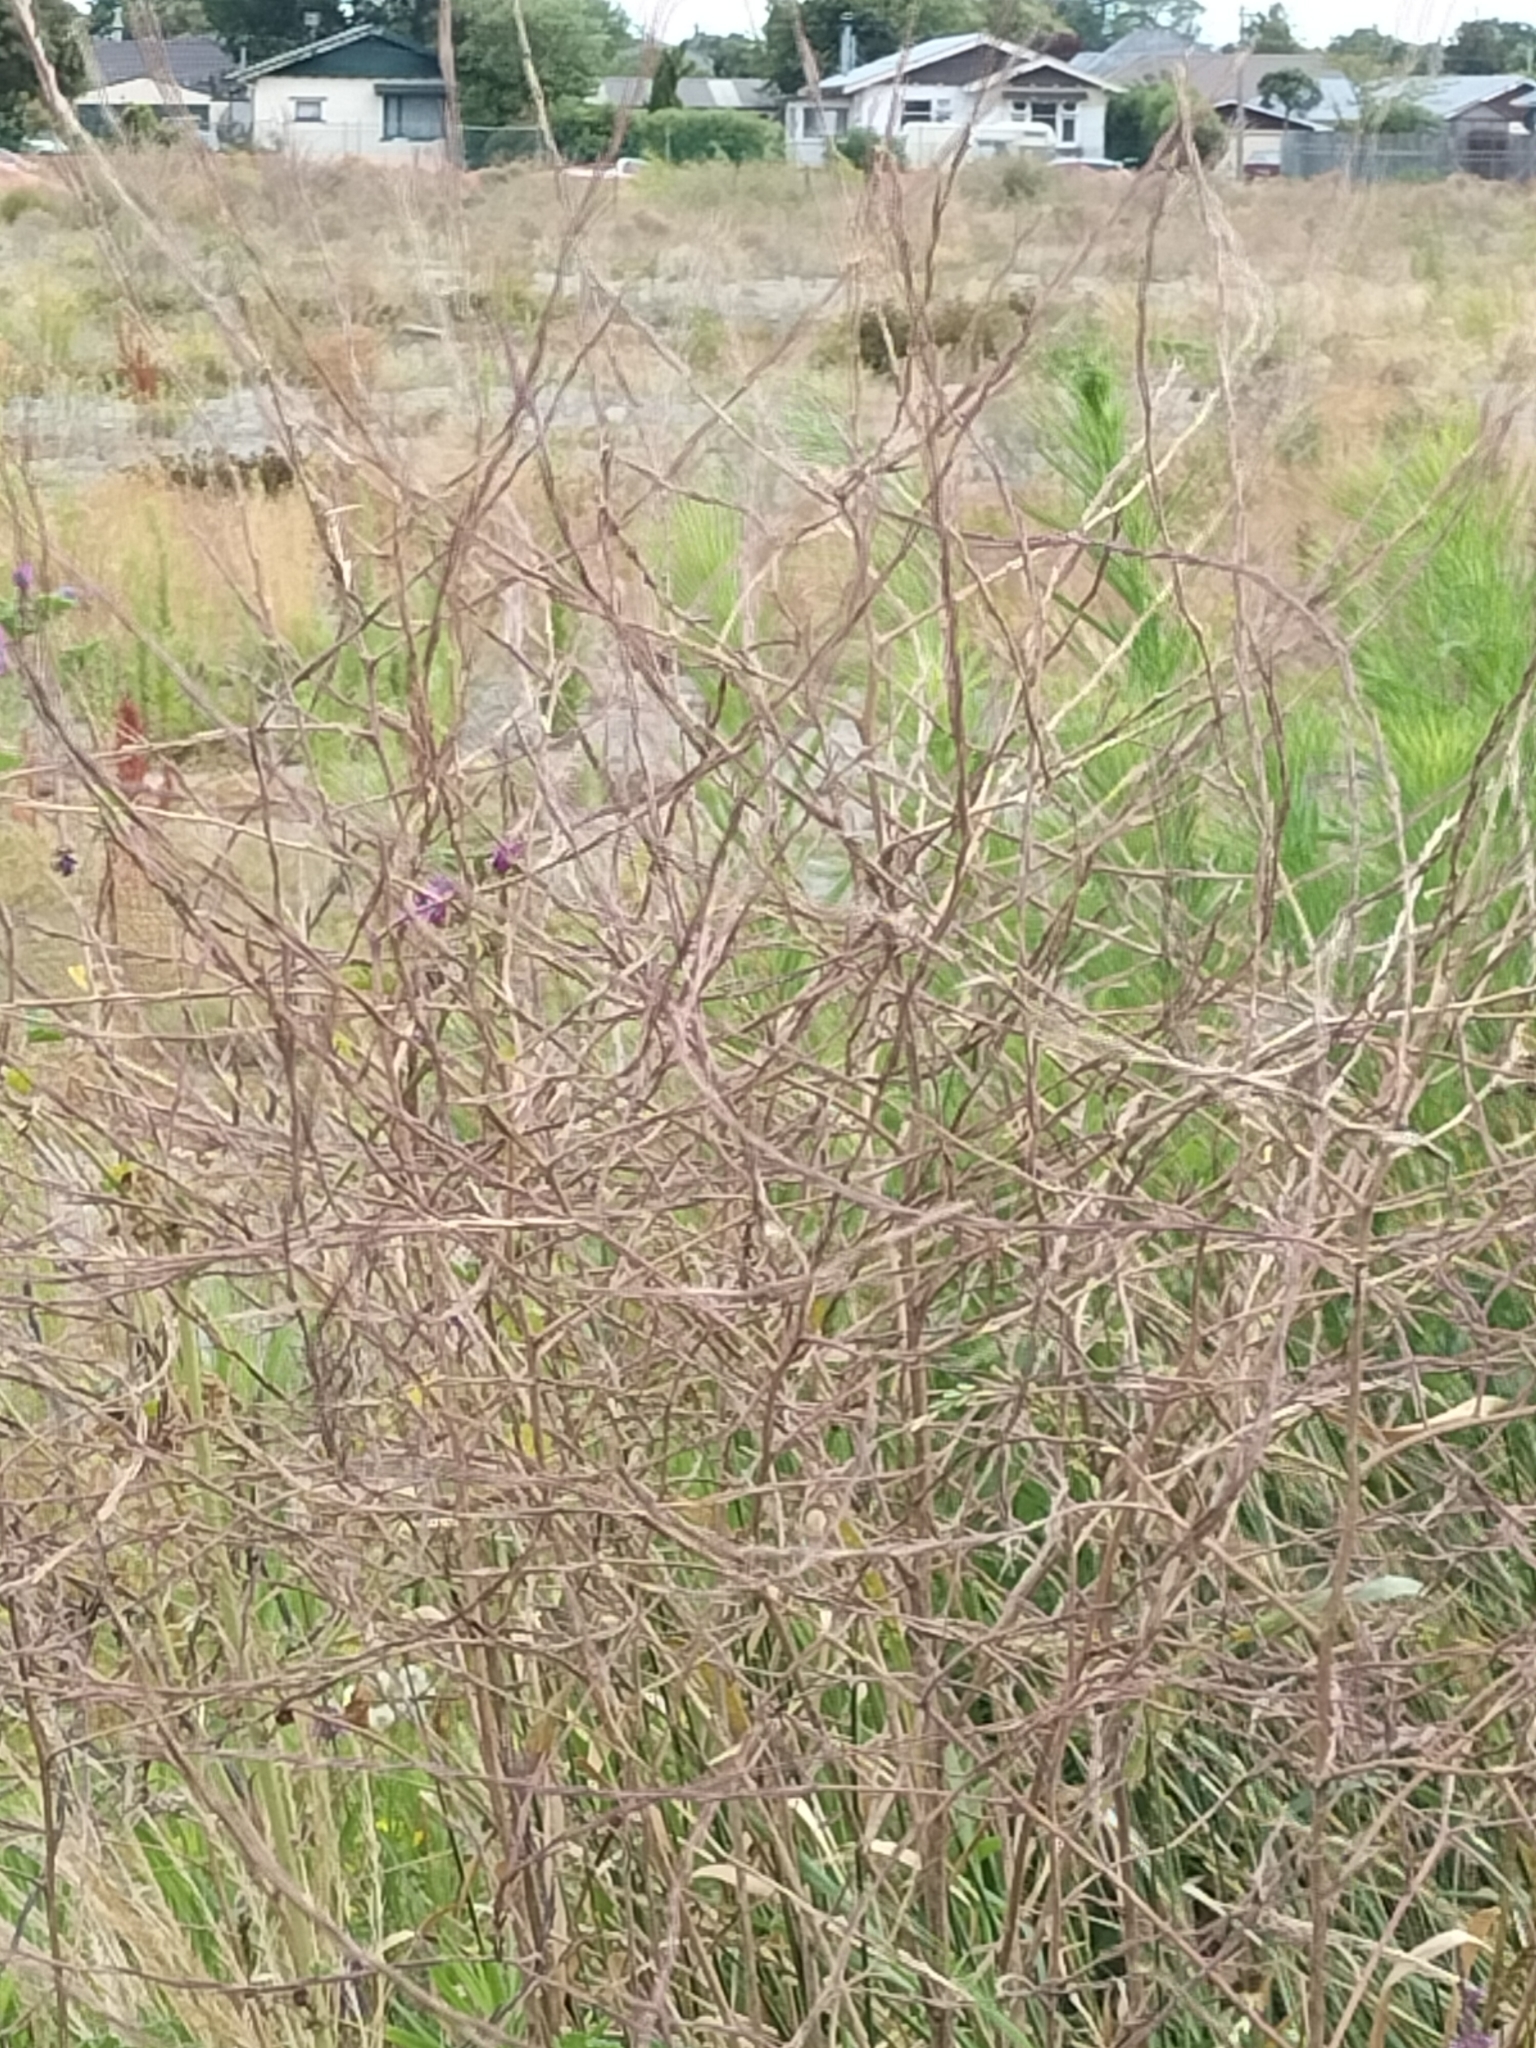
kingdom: Plantae
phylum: Tracheophyta
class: Magnoliopsida
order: Brassicales
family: Brassicaceae
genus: Sisymbrium
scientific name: Sisymbrium officinale
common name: Hedge mustard
